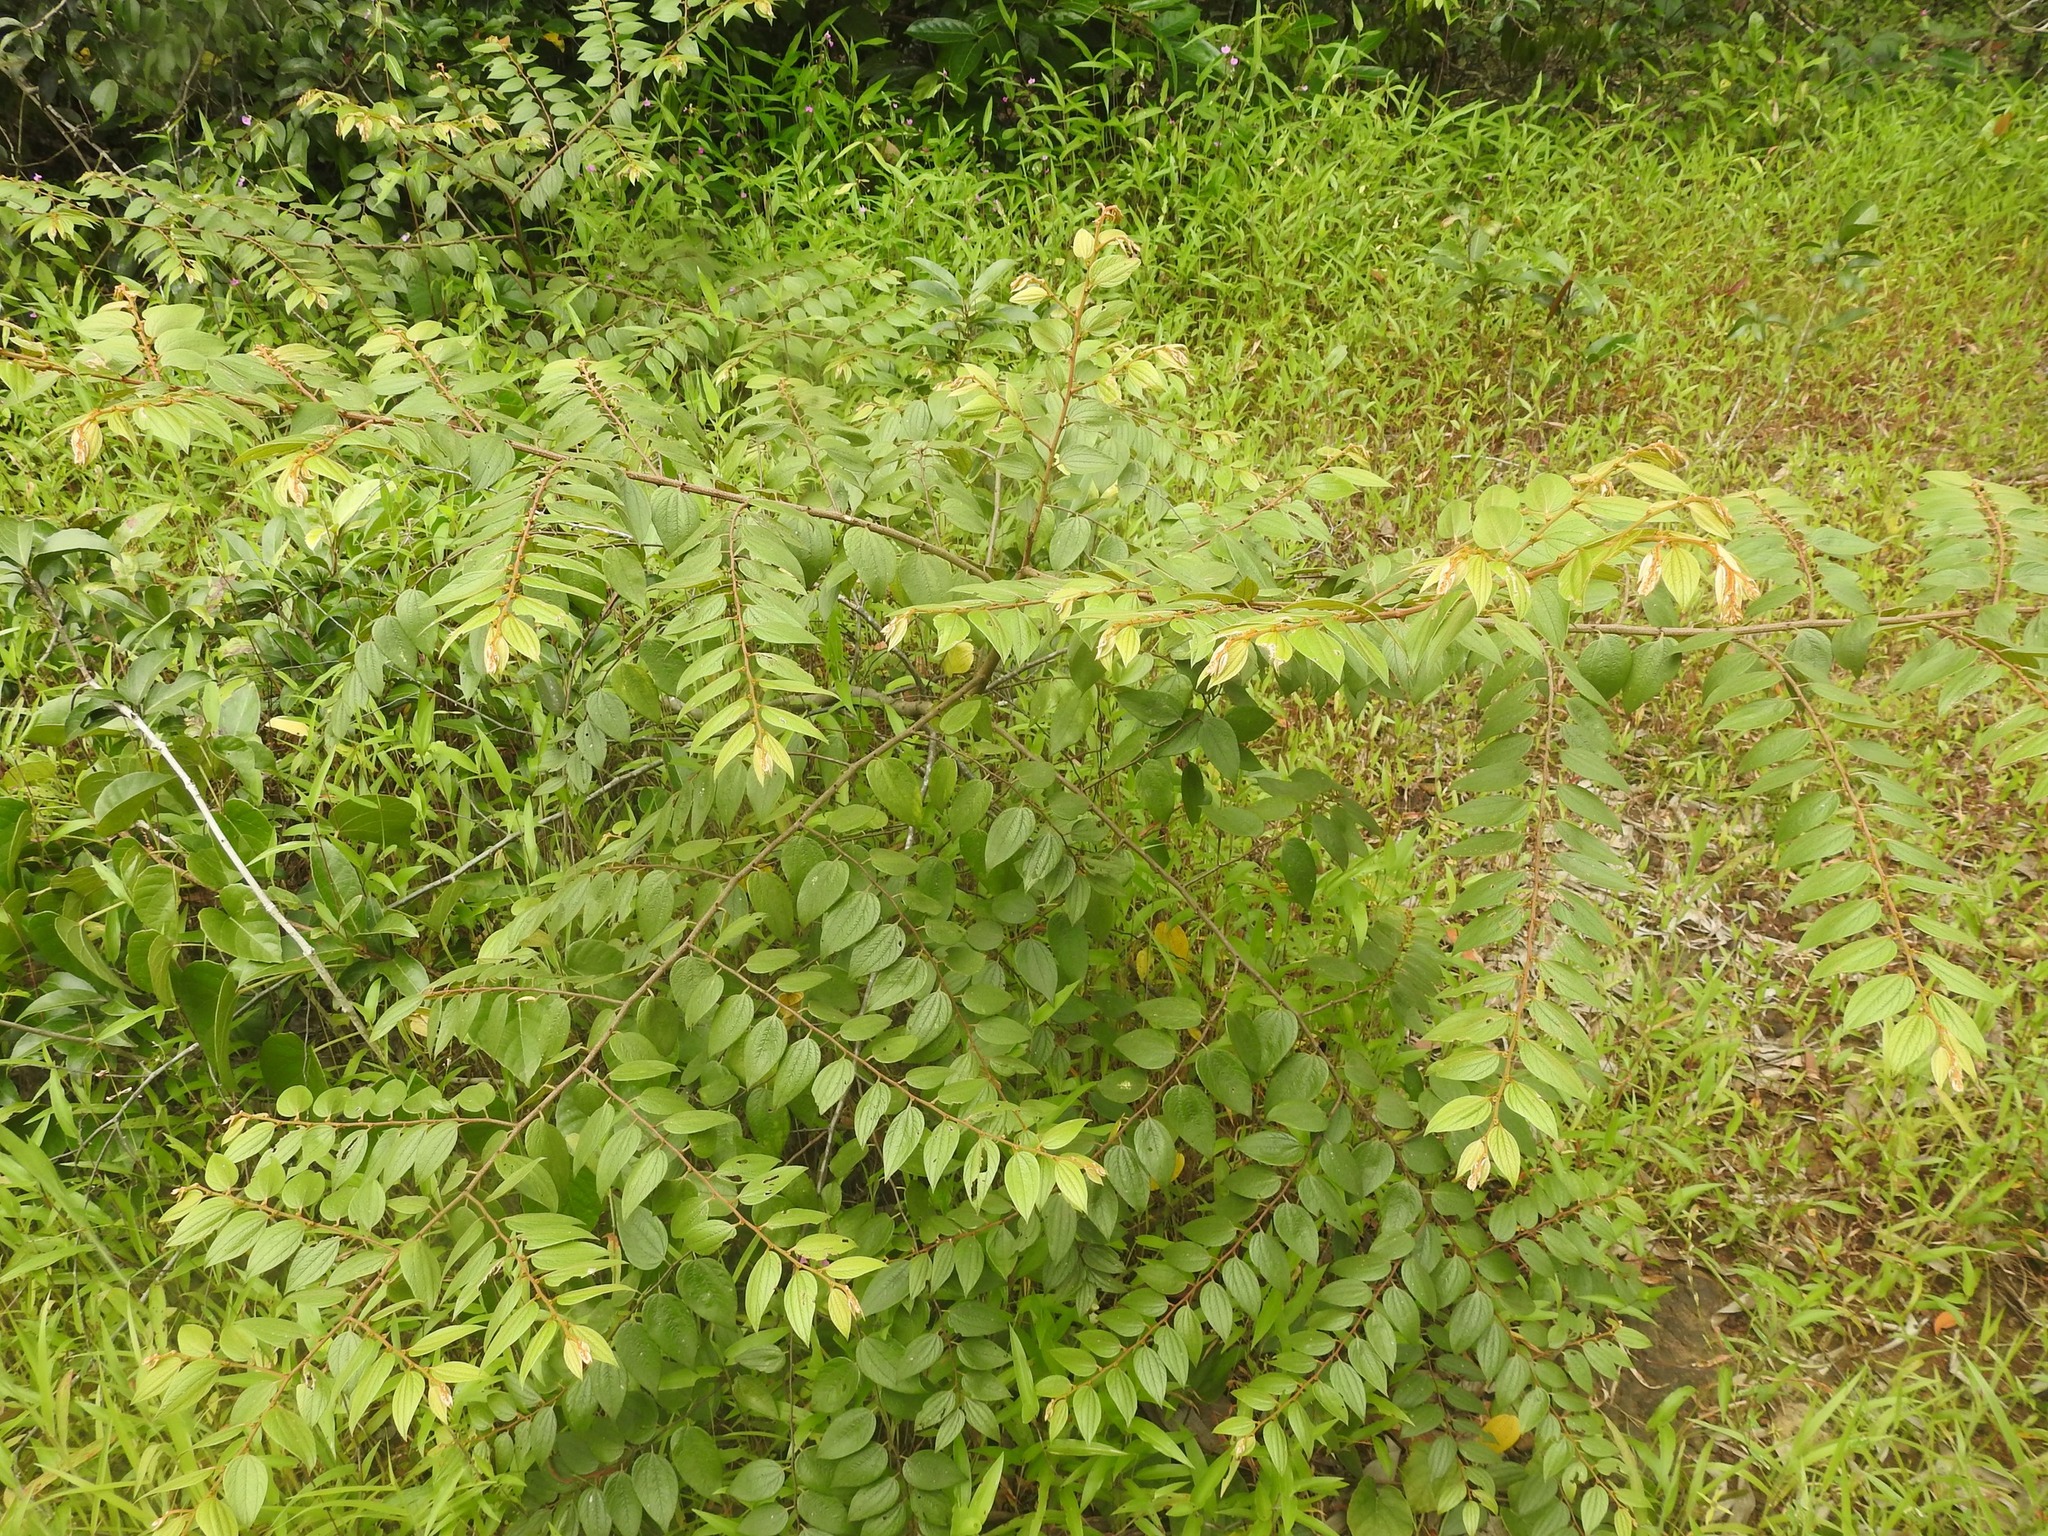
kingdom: Plantae
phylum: Tracheophyta
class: Magnoliopsida
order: Rosales
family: Rhamnaceae
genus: Ziziphus
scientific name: Ziziphus oenopolia
